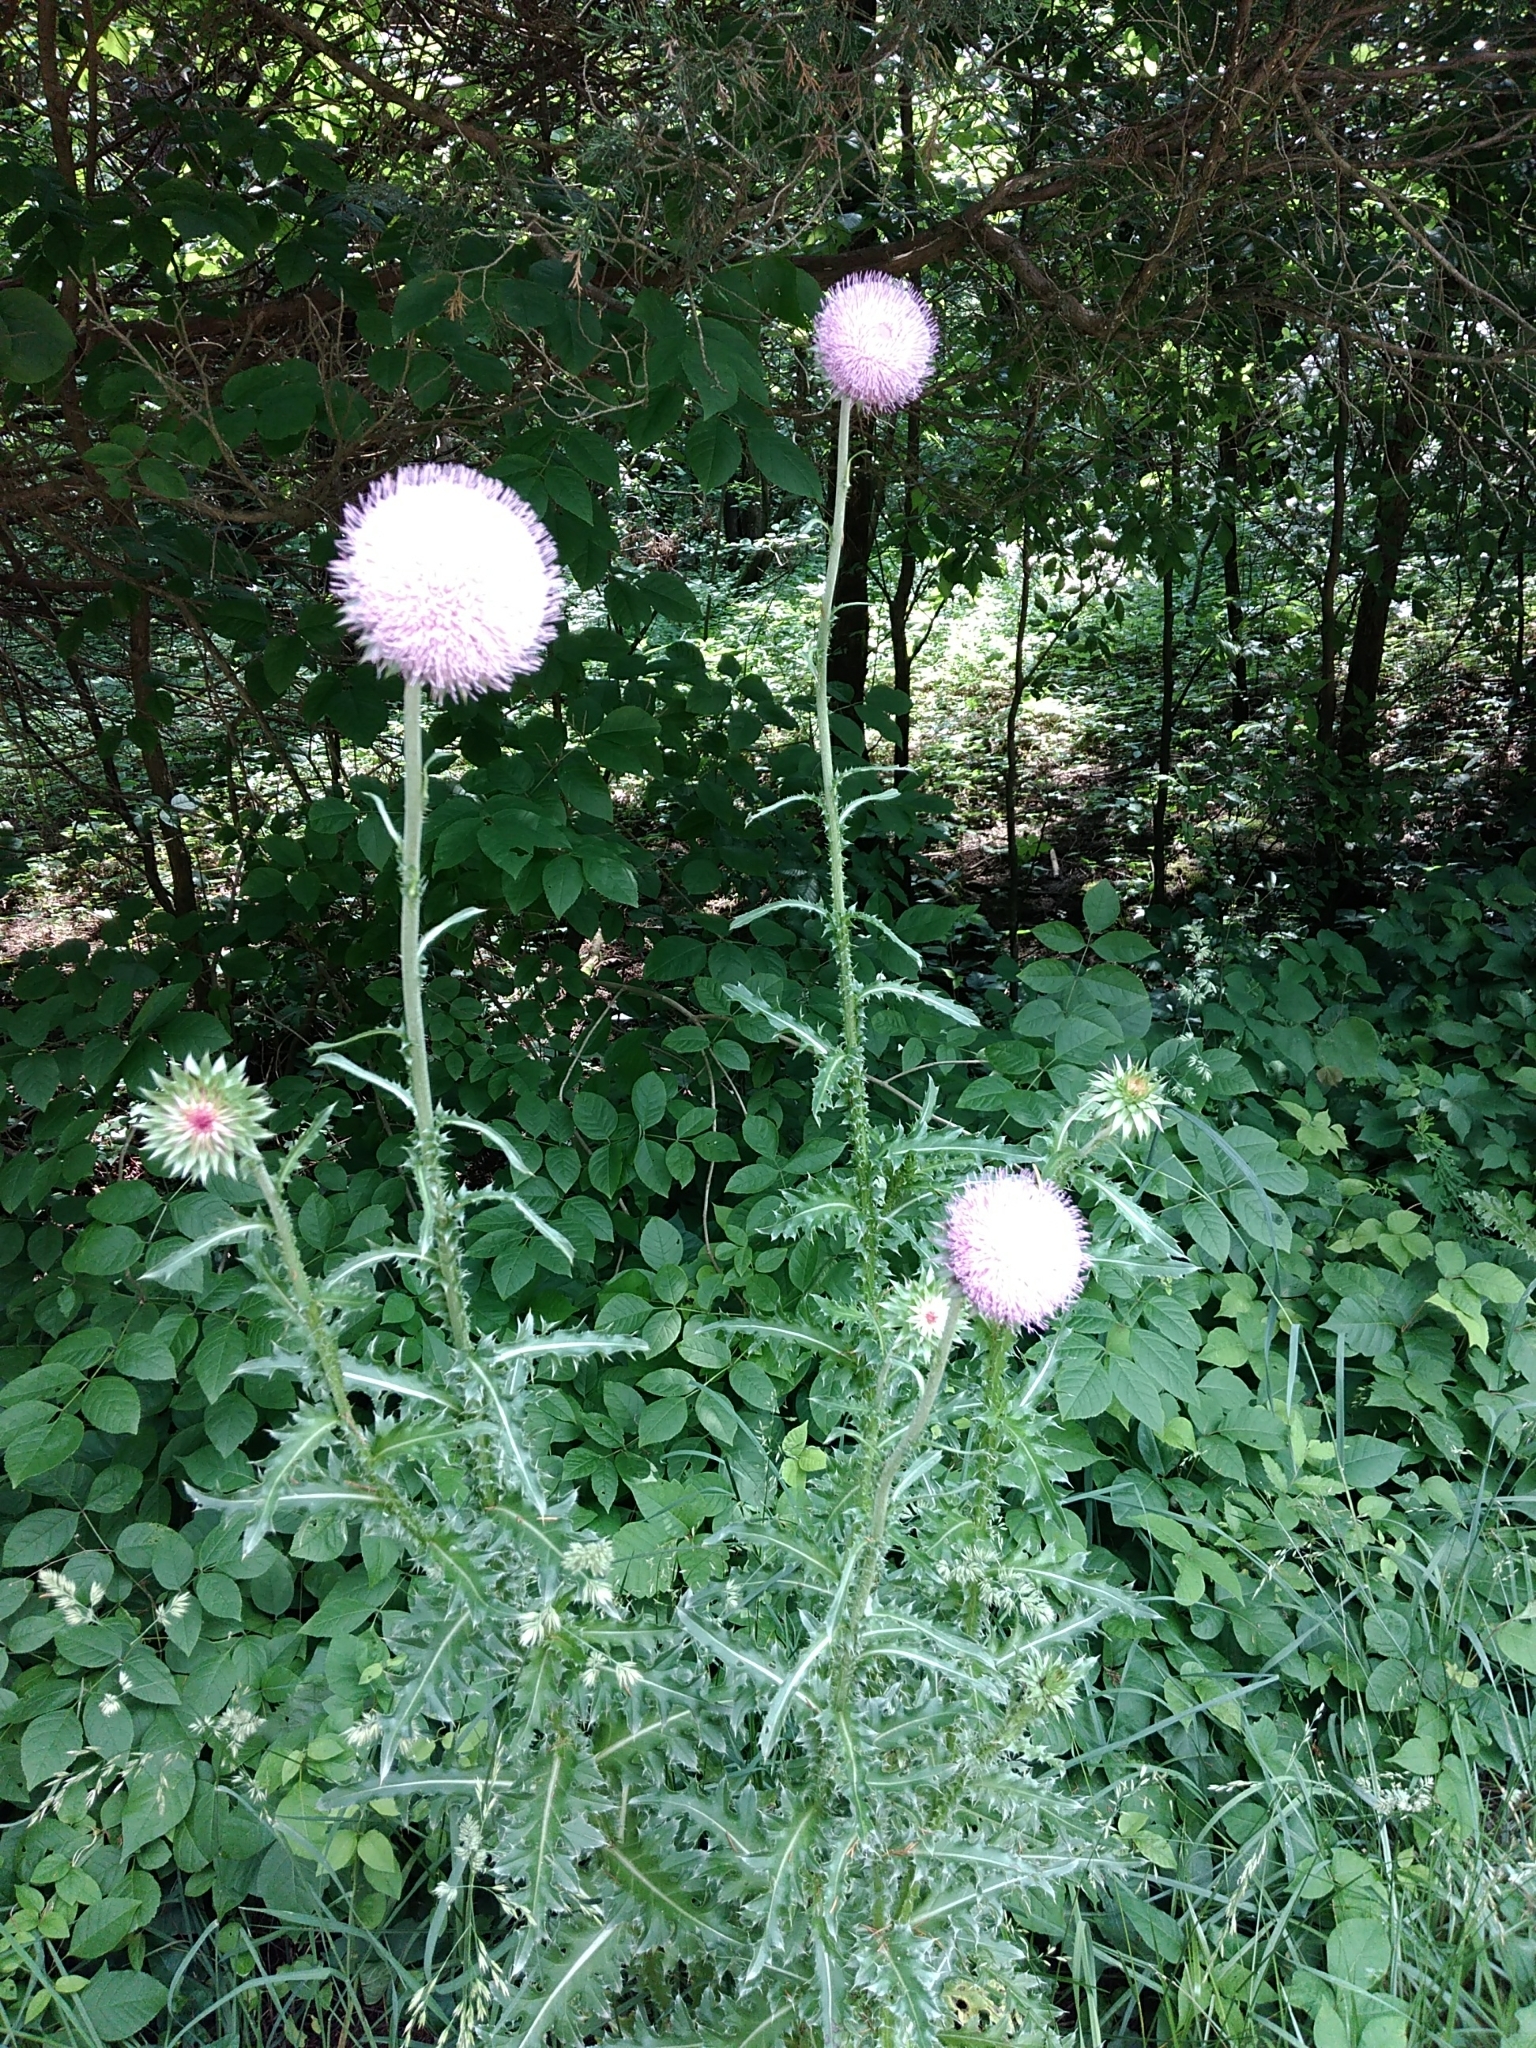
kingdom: Plantae
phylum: Tracheophyta
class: Magnoliopsida
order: Asterales
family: Asteraceae
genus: Carduus
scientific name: Carduus nutans
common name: Musk thistle
